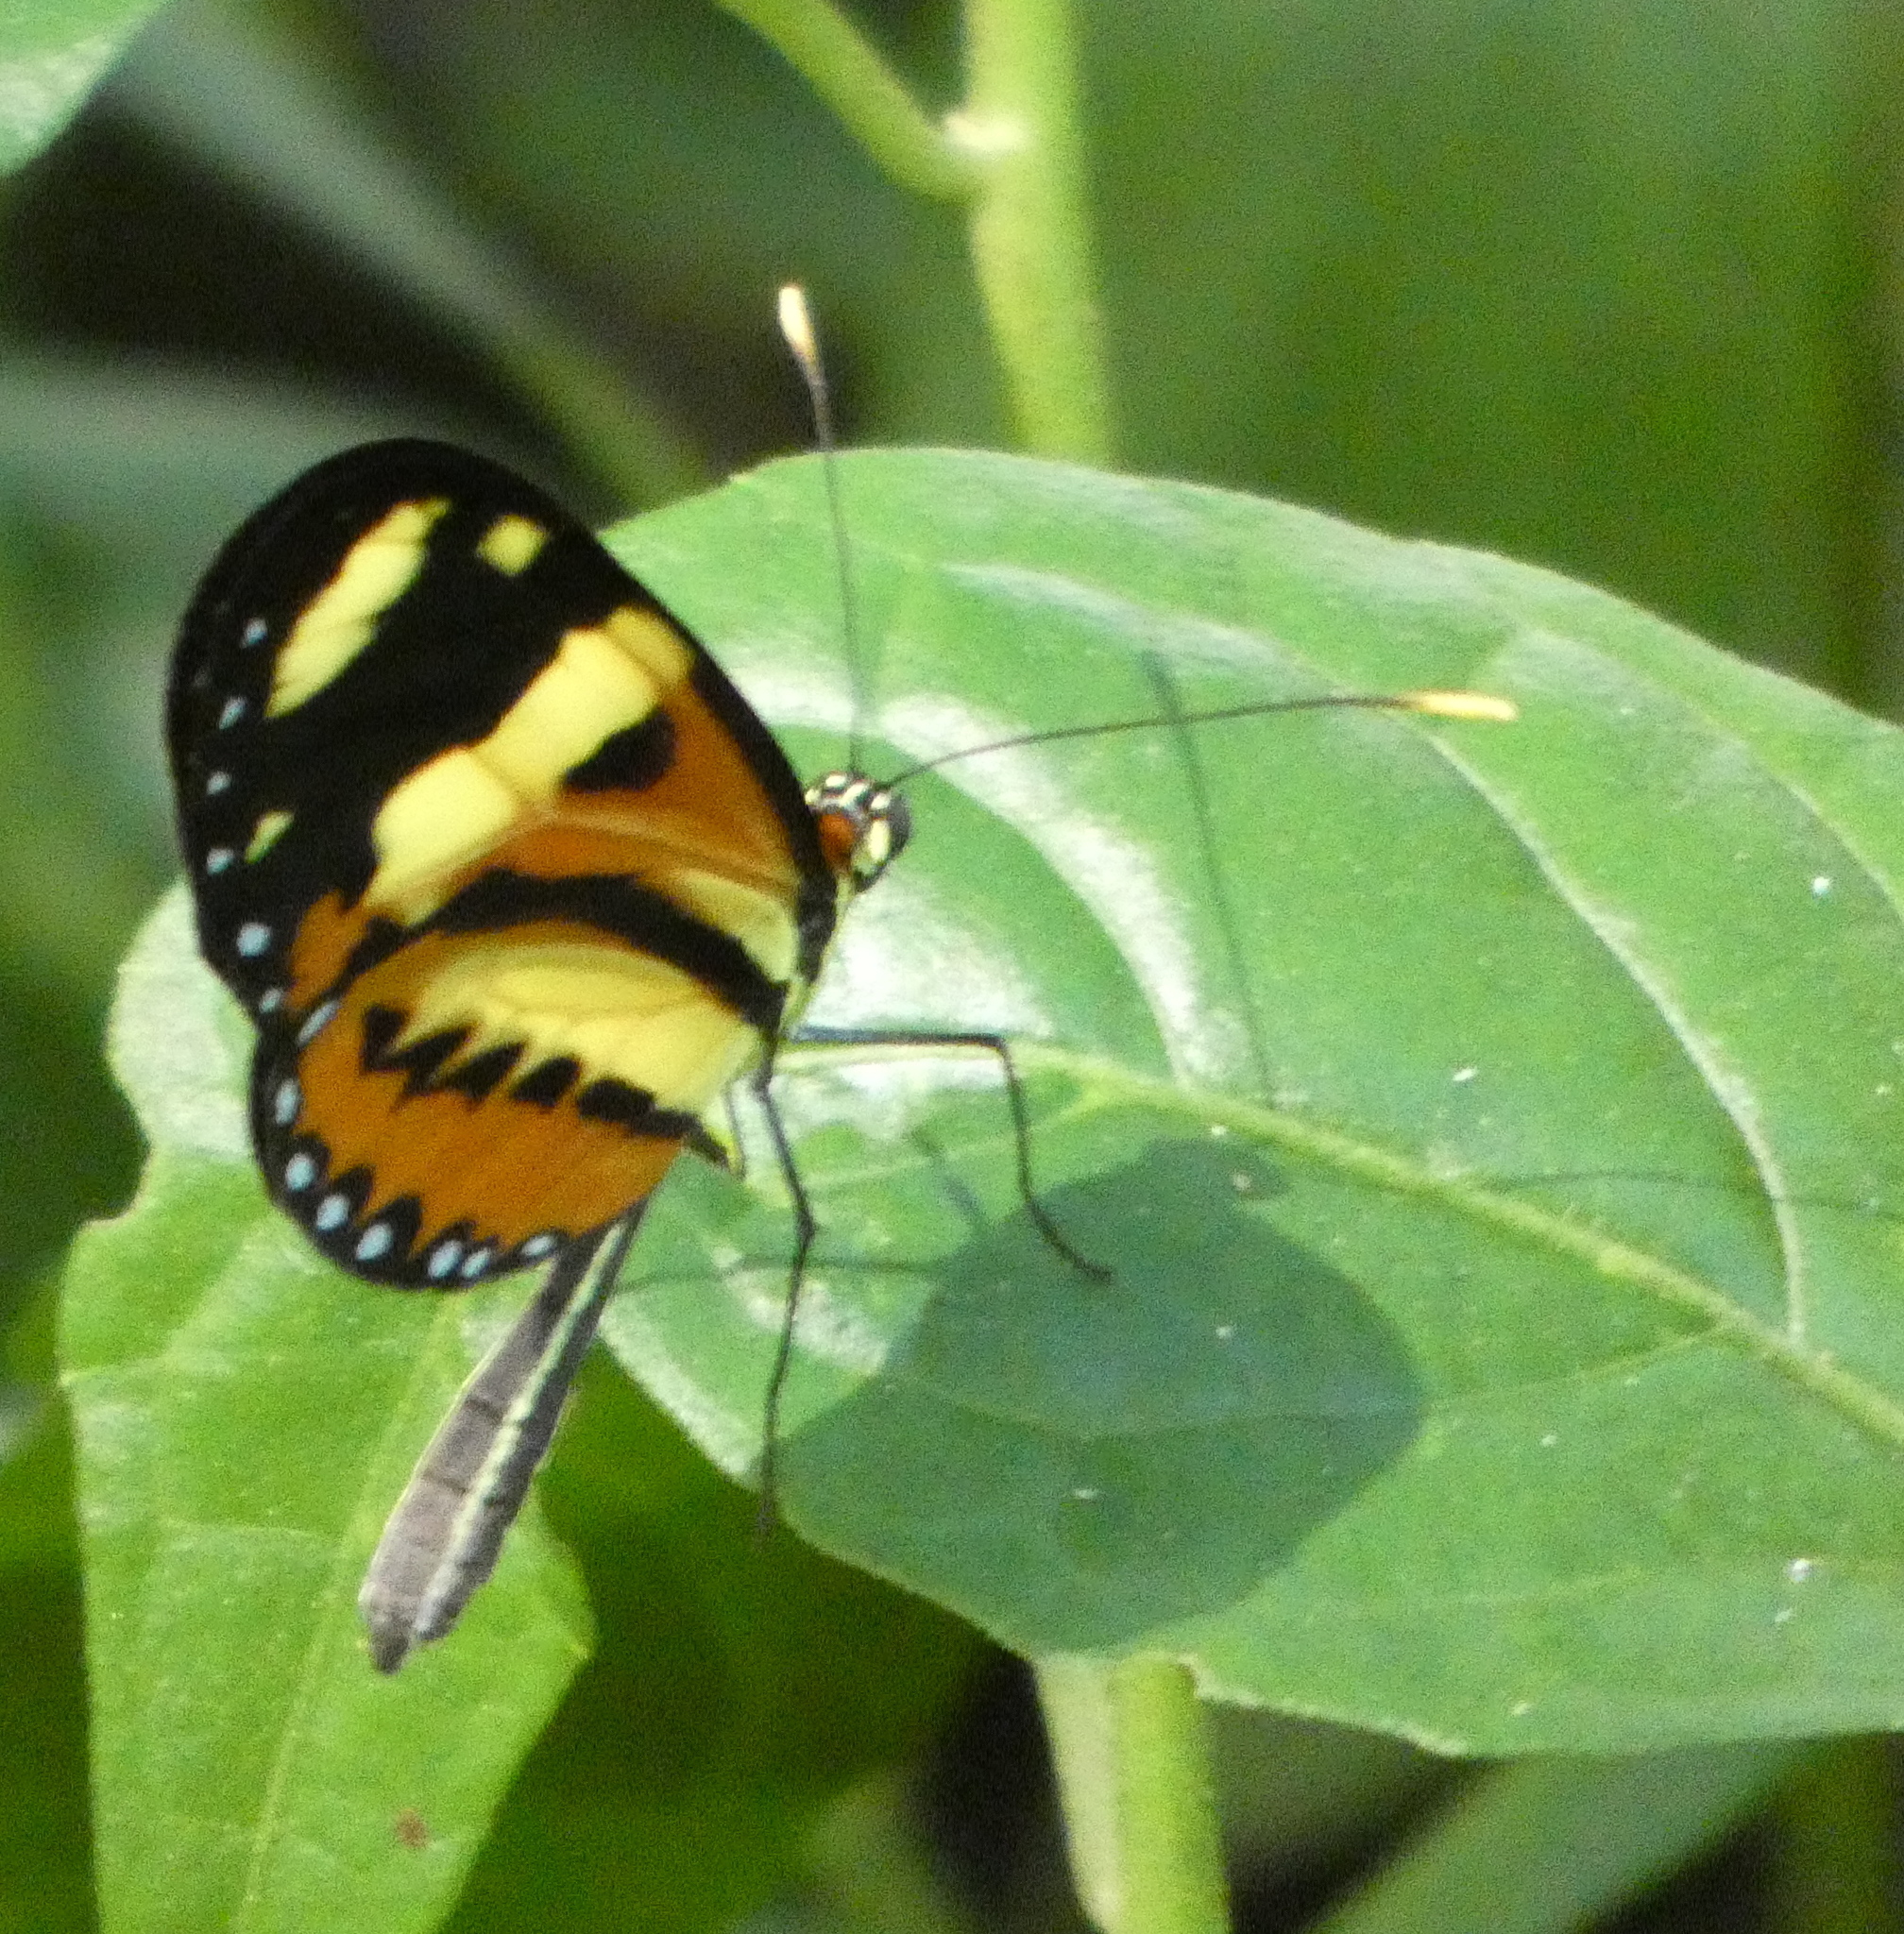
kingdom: Animalia
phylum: Arthropoda
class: Insecta
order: Lepidoptera
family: Nymphalidae
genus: Mechanitis
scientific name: Mechanitis lysimnia
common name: Lysimnia tigerwing
